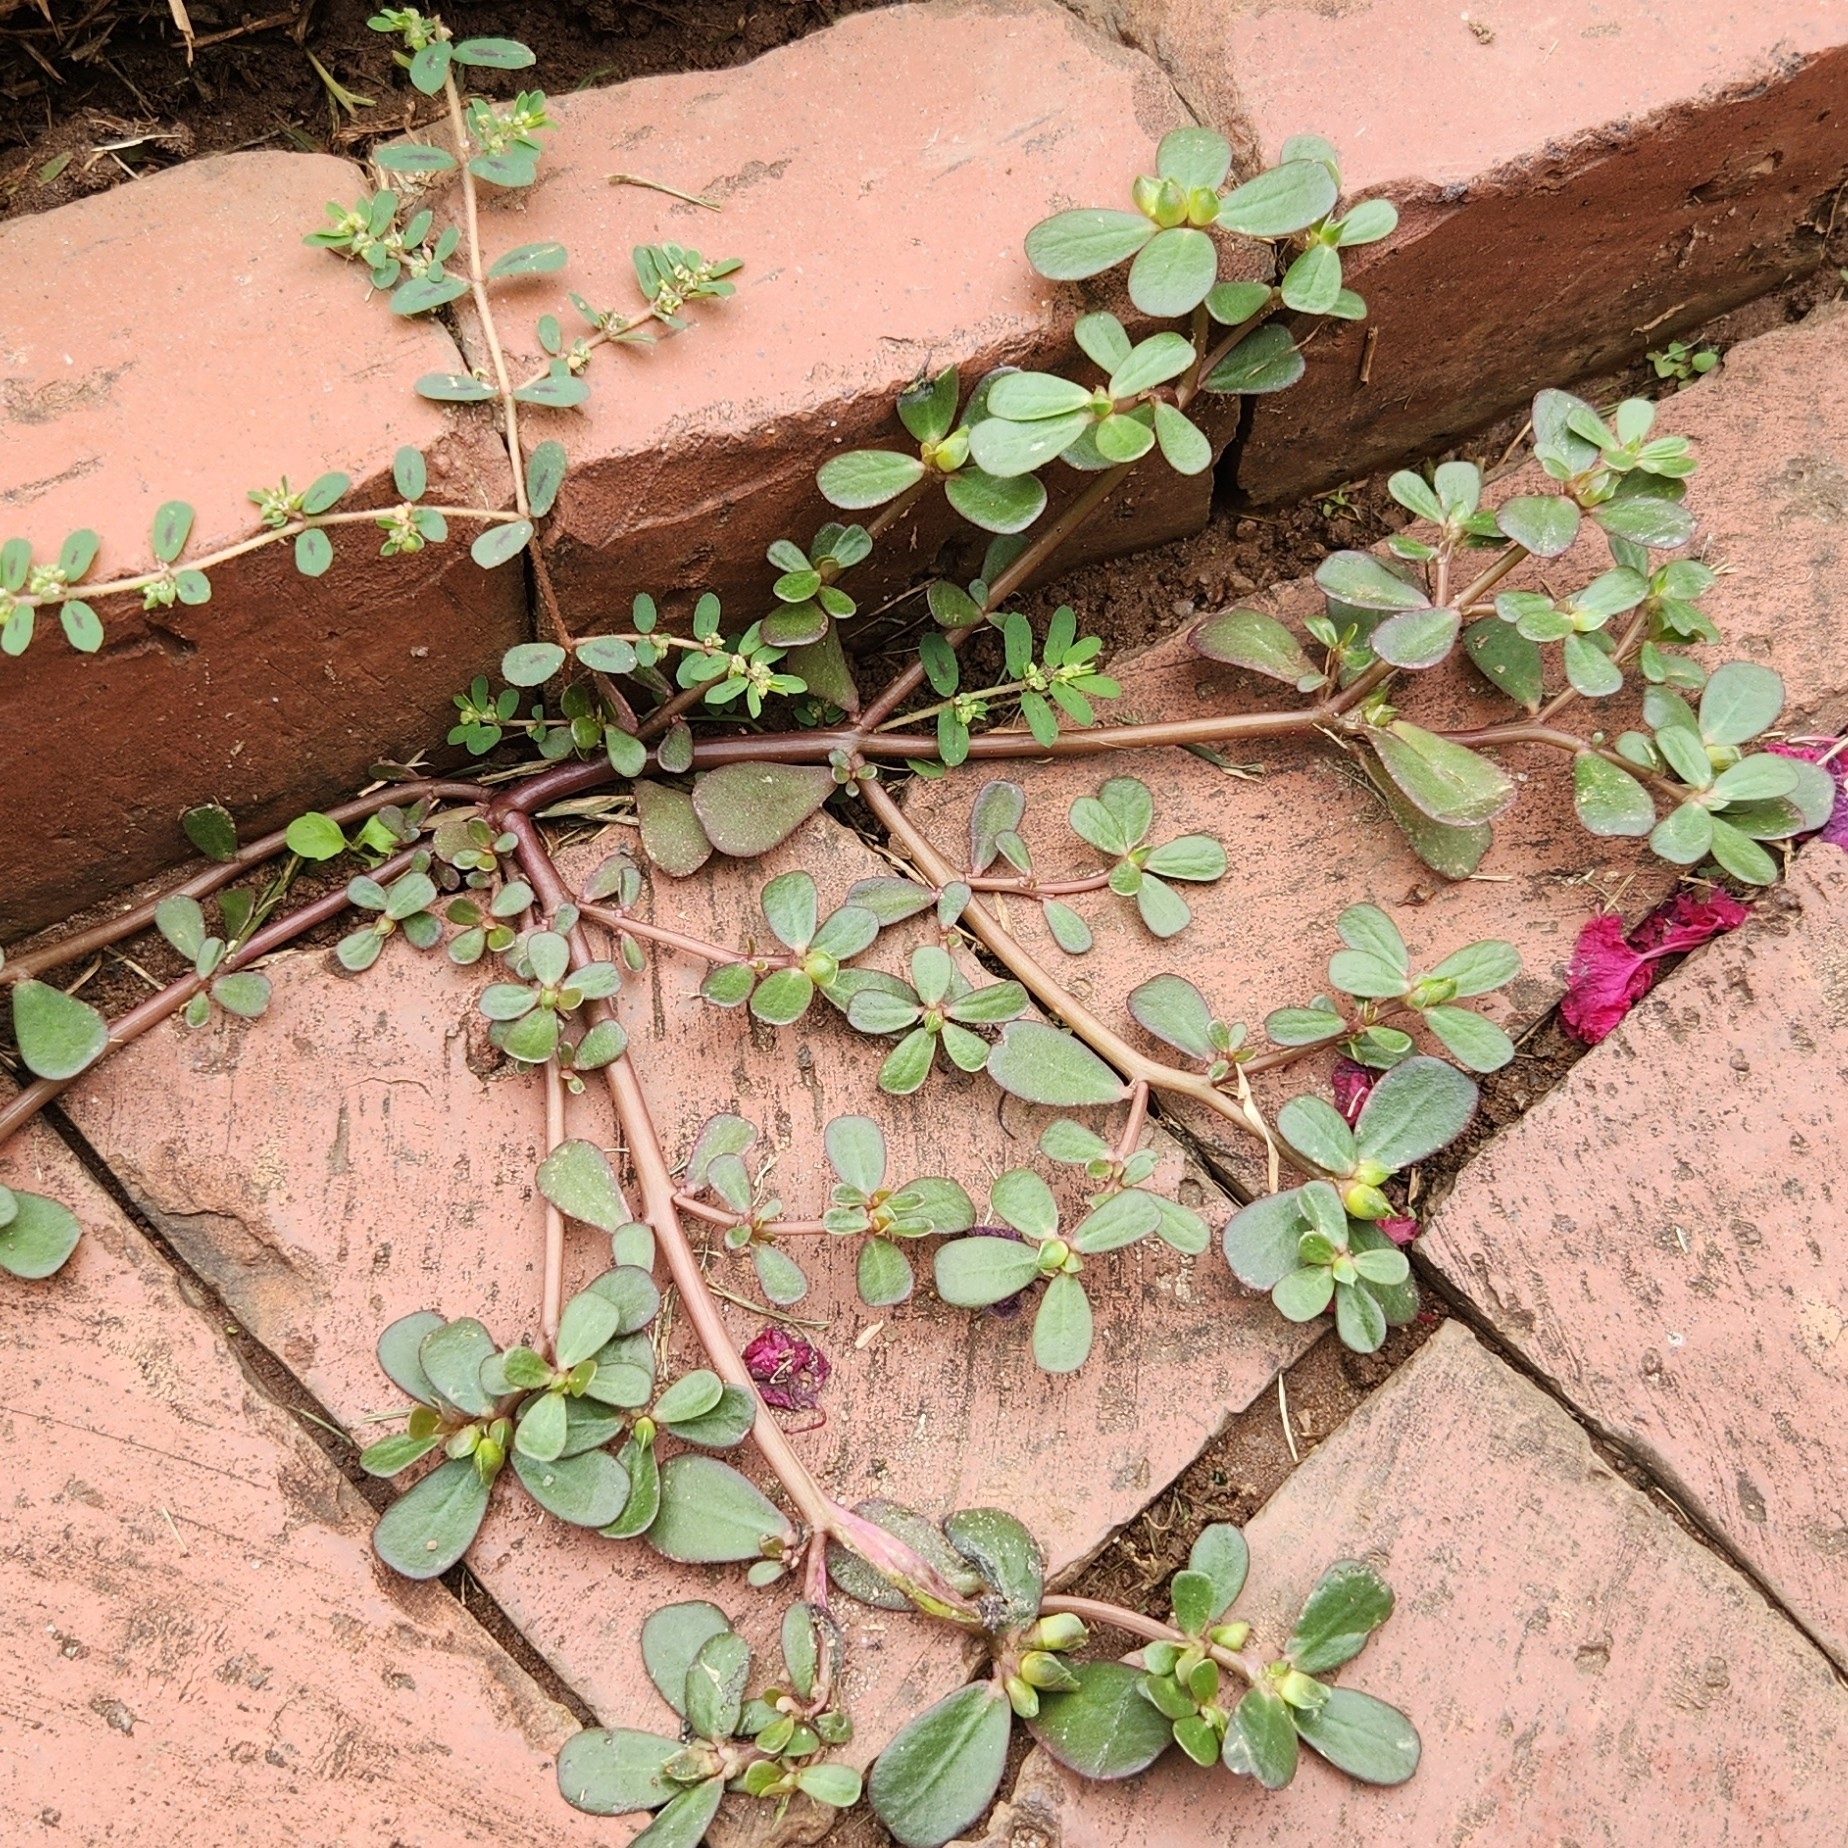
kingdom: Plantae
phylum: Tracheophyta
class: Magnoliopsida
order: Caryophyllales
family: Portulacaceae
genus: Portulaca
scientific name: Portulaca oleracea
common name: Common purslane
